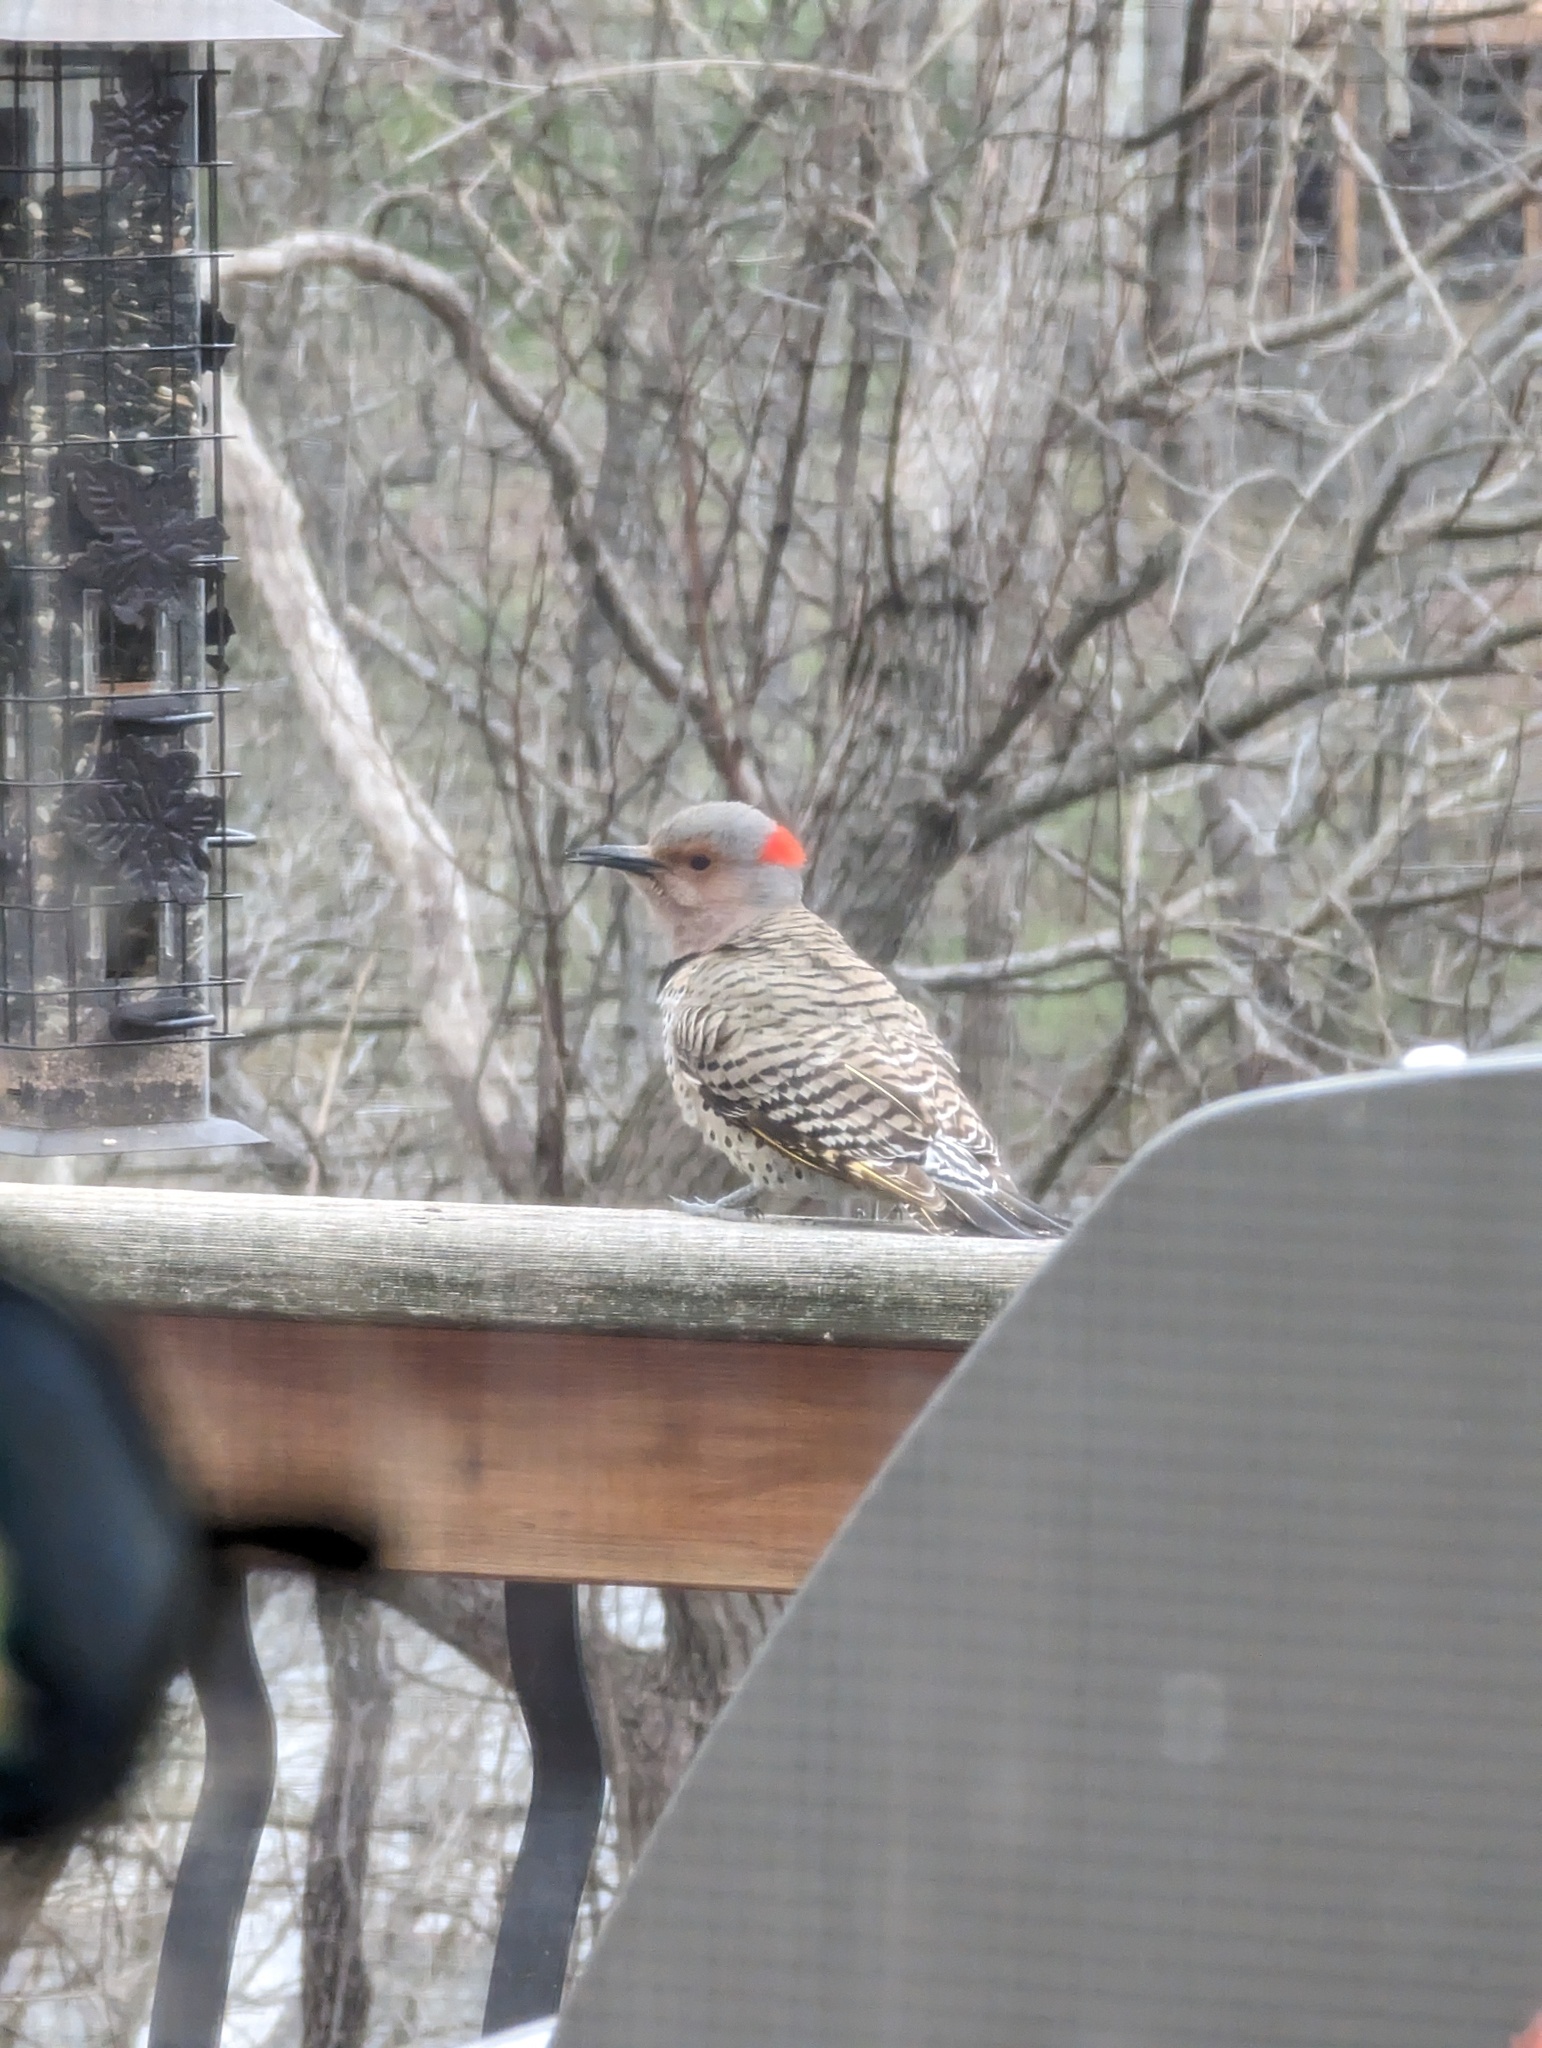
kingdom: Animalia
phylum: Chordata
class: Aves
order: Piciformes
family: Picidae
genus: Colaptes
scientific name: Colaptes auratus
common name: Northern flicker
